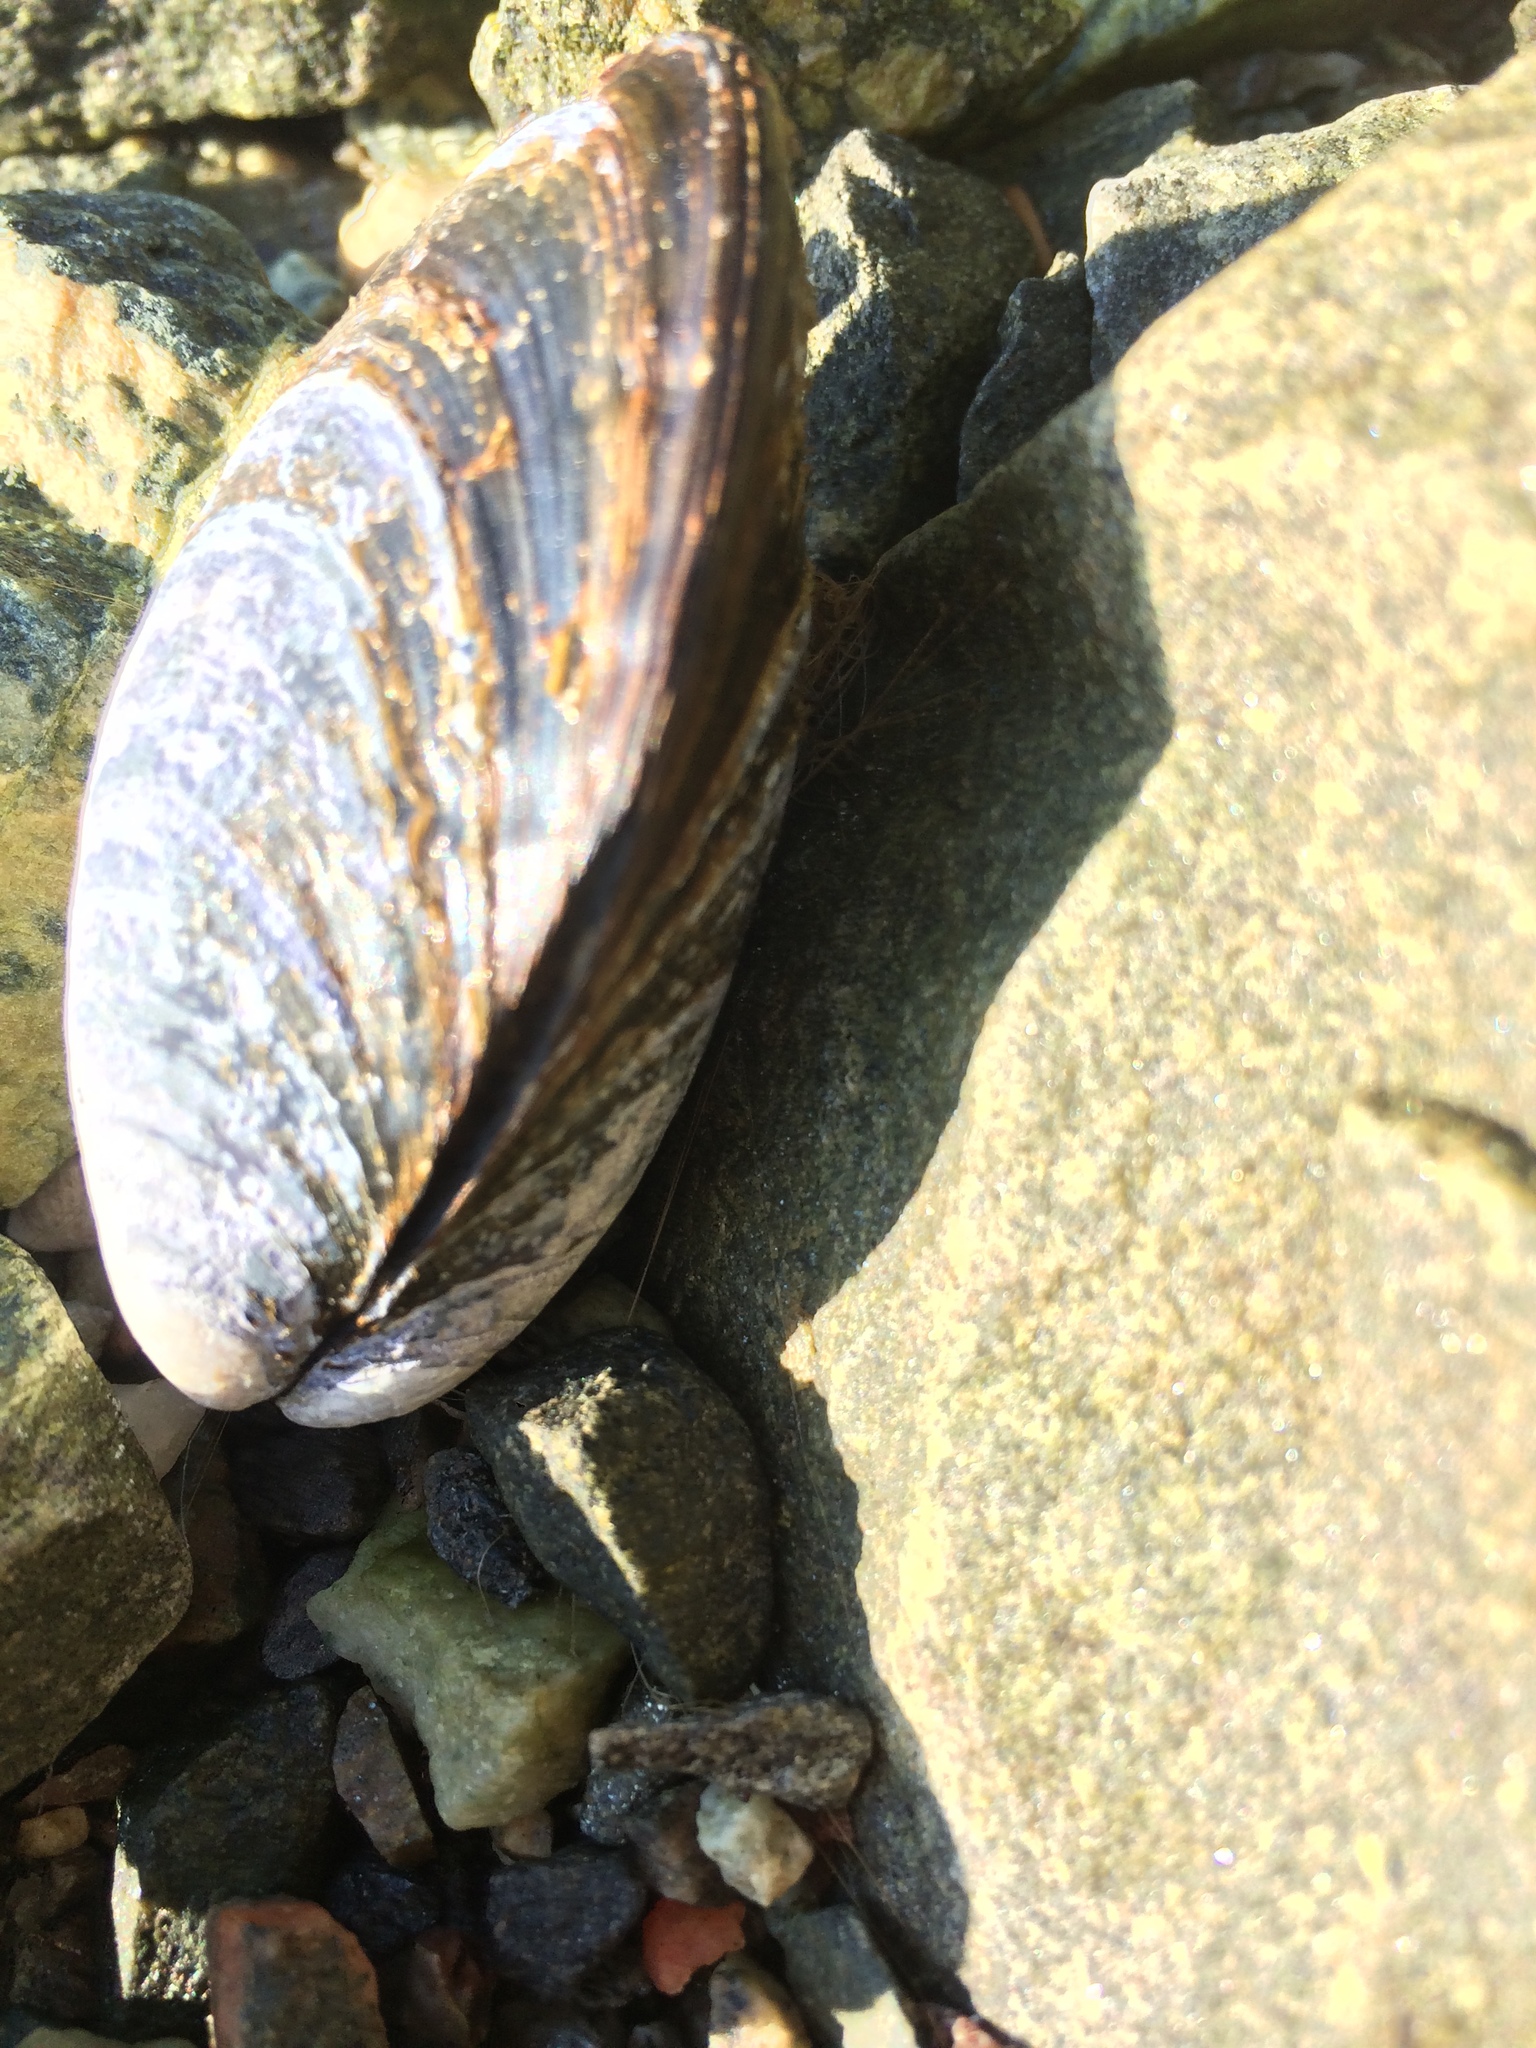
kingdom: Animalia
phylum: Mollusca
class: Bivalvia
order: Mytilida
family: Mytilidae
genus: Mytilus
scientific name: Mytilus edulis
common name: Blue mussel
